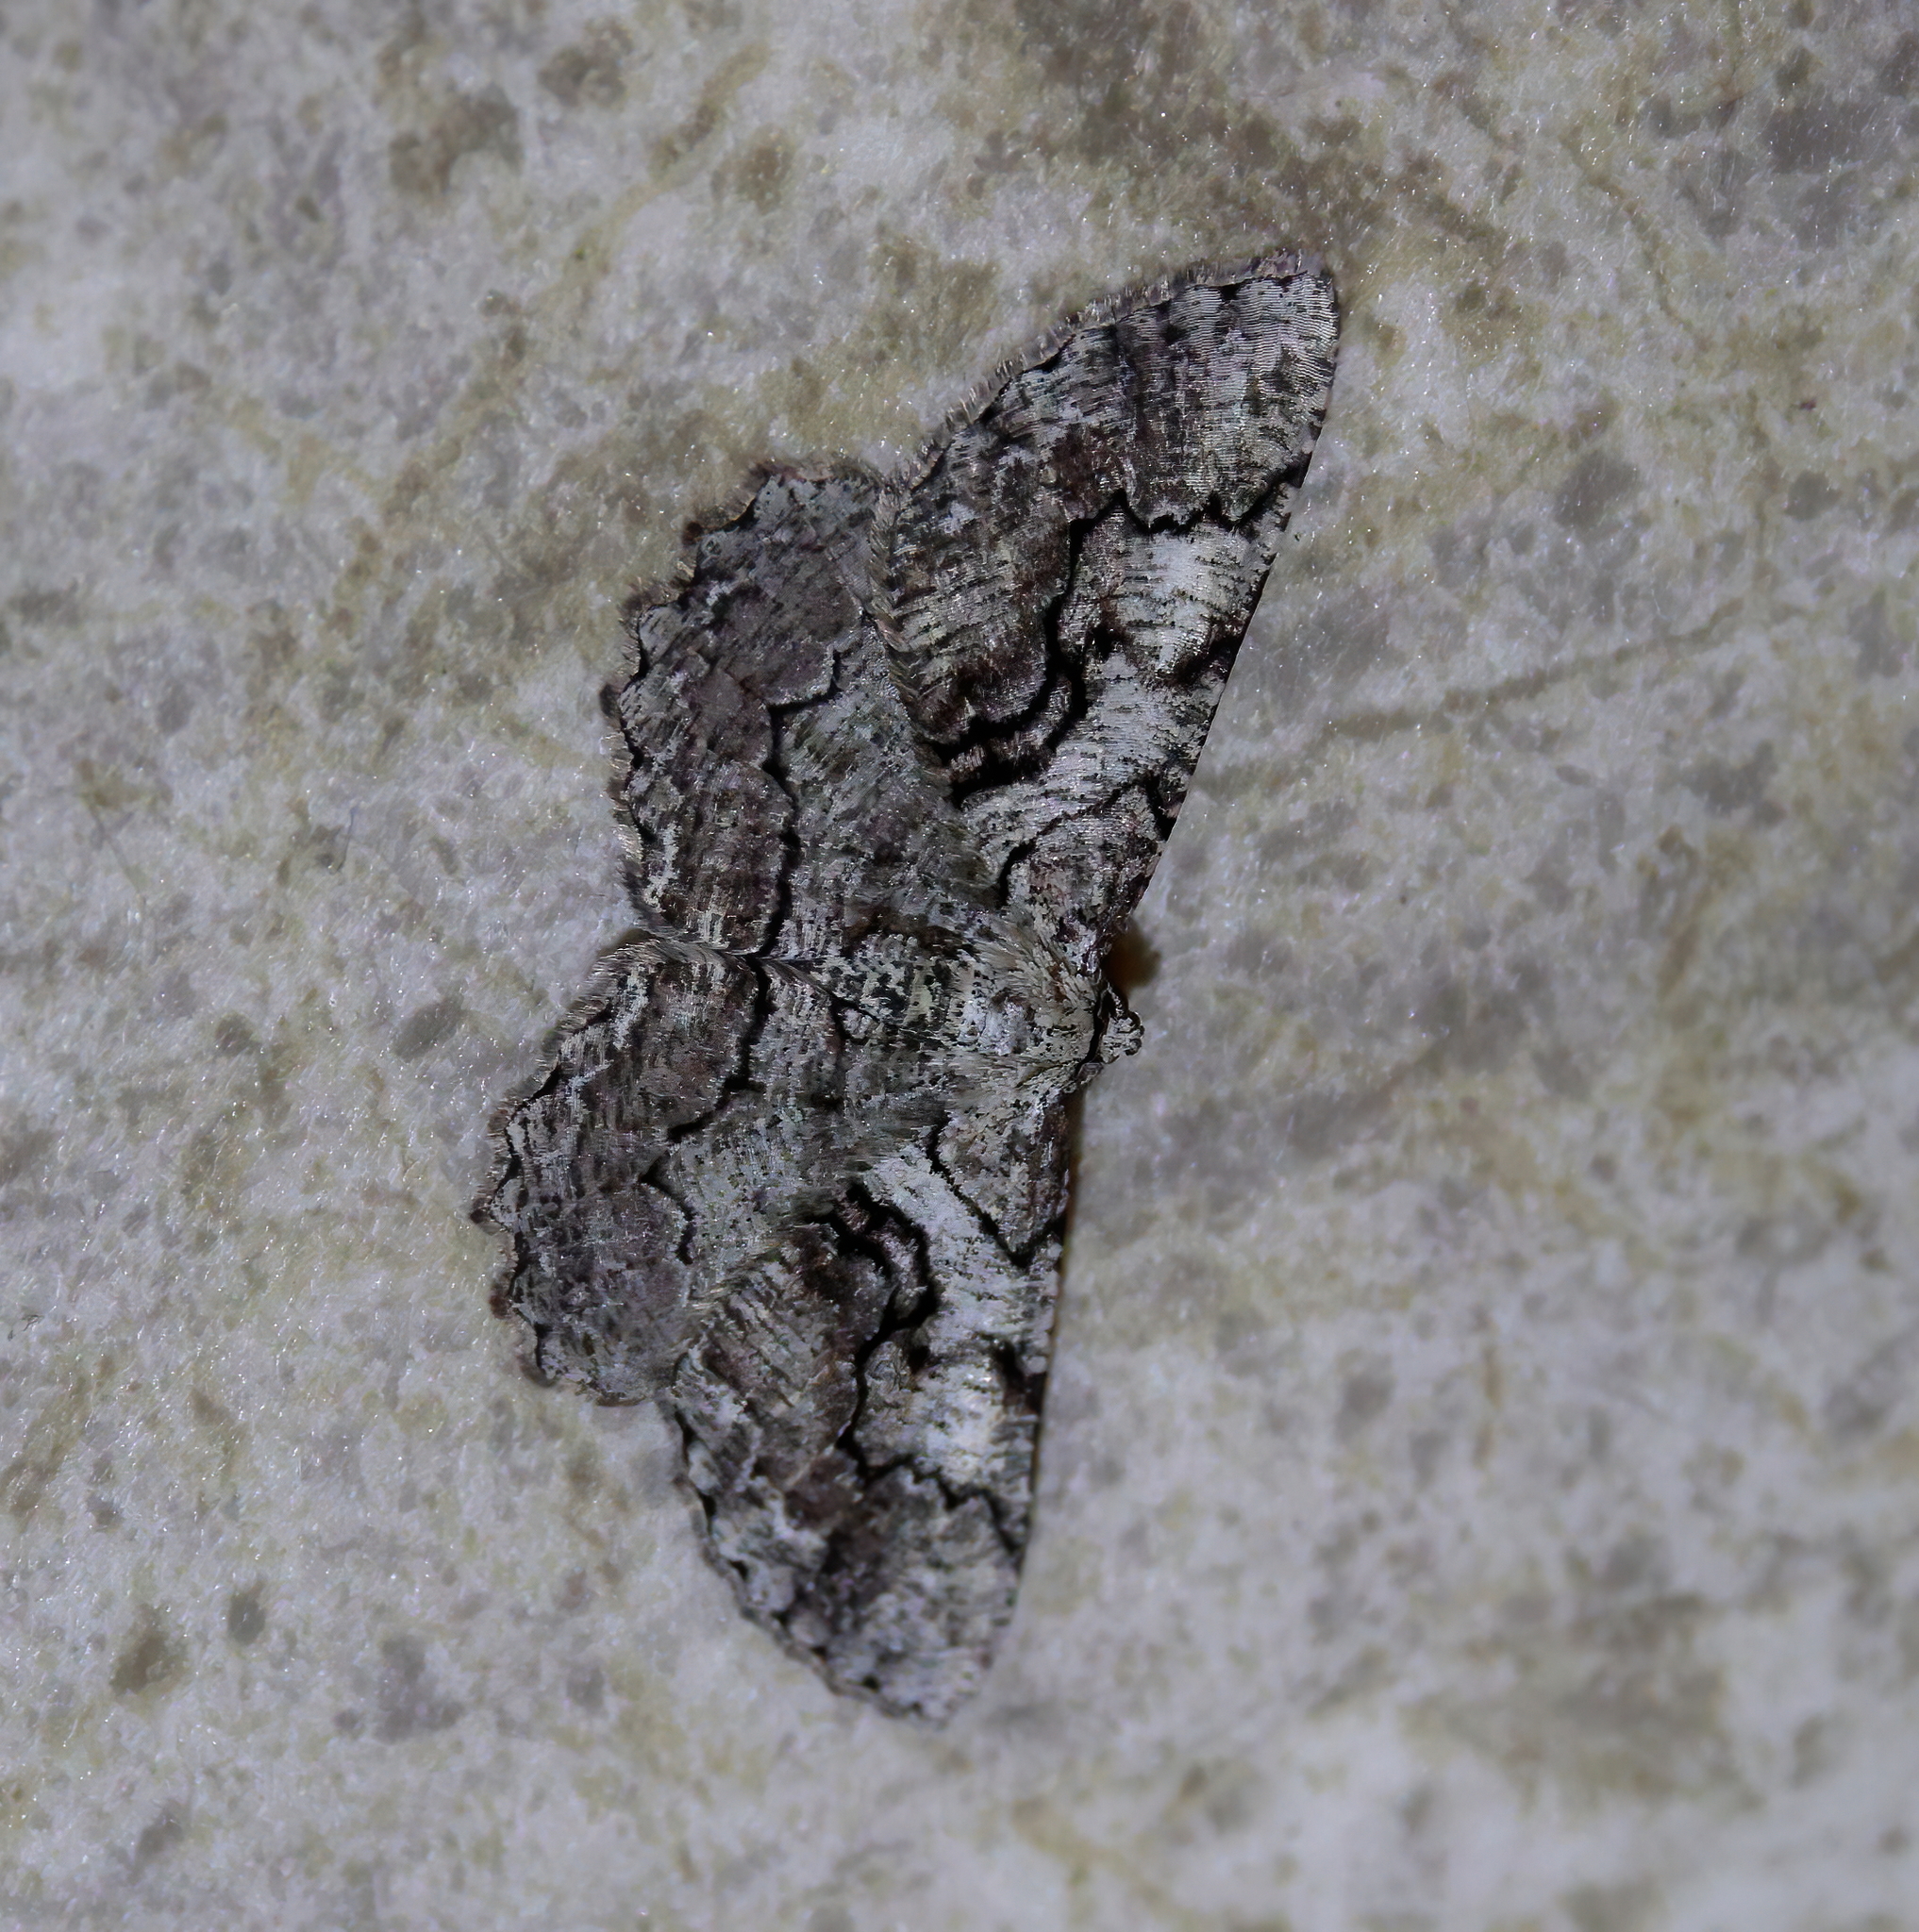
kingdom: Animalia
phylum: Arthropoda
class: Insecta
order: Lepidoptera
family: Geometridae
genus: Cymatophora
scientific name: Cymatophora approximaria
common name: Giant gray moth
